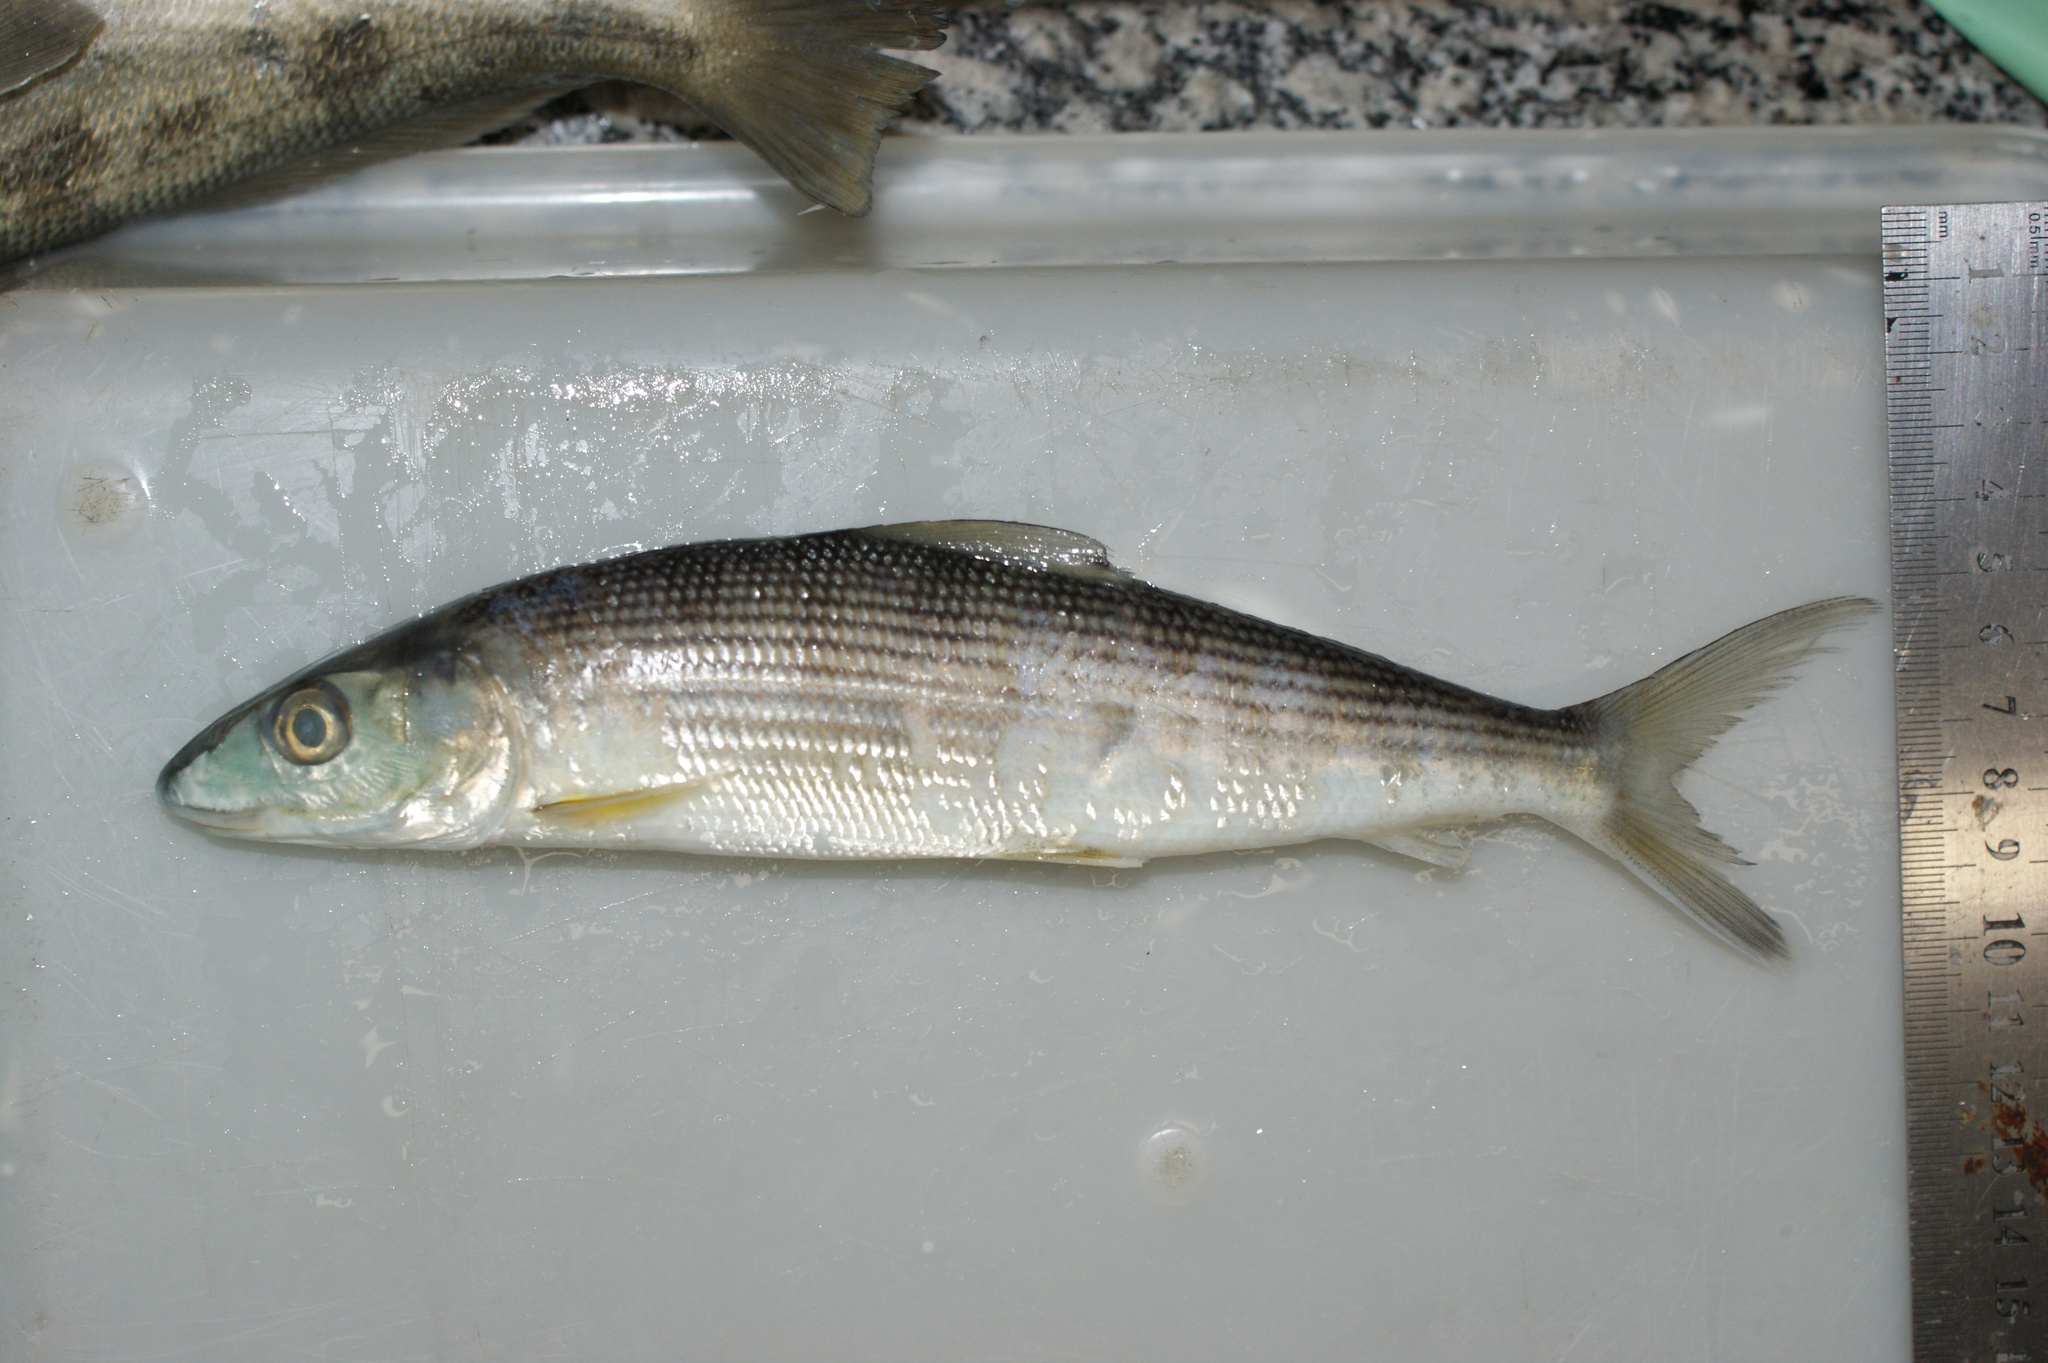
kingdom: Animalia
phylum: Chordata
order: Albuliformes
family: Albulidae
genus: Albula
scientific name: Albula vulpes
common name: Bonefish
